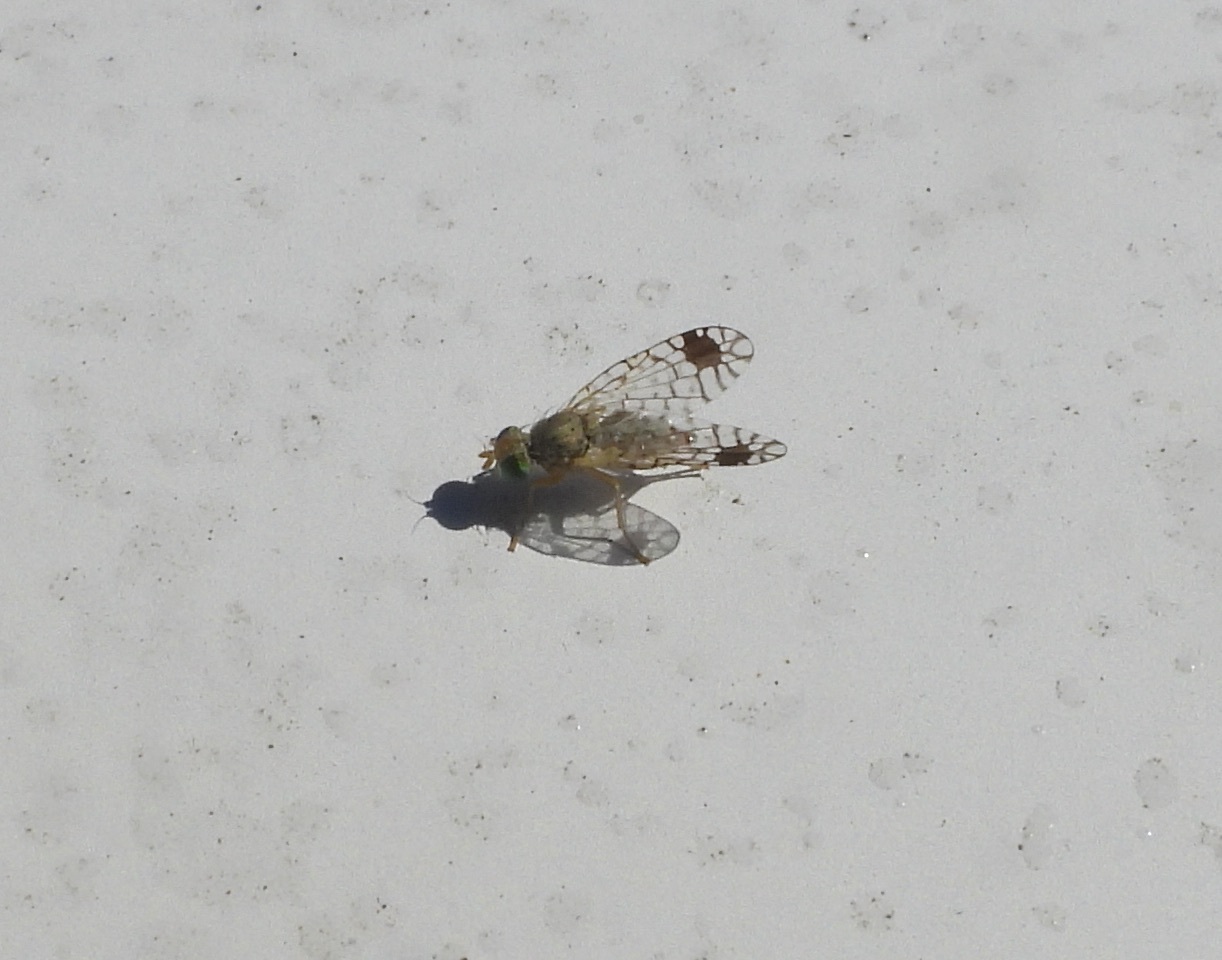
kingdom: Animalia
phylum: Arthropoda
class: Insecta
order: Diptera
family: Tephritidae
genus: Euarestoides
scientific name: Euarestoides acutangulus
